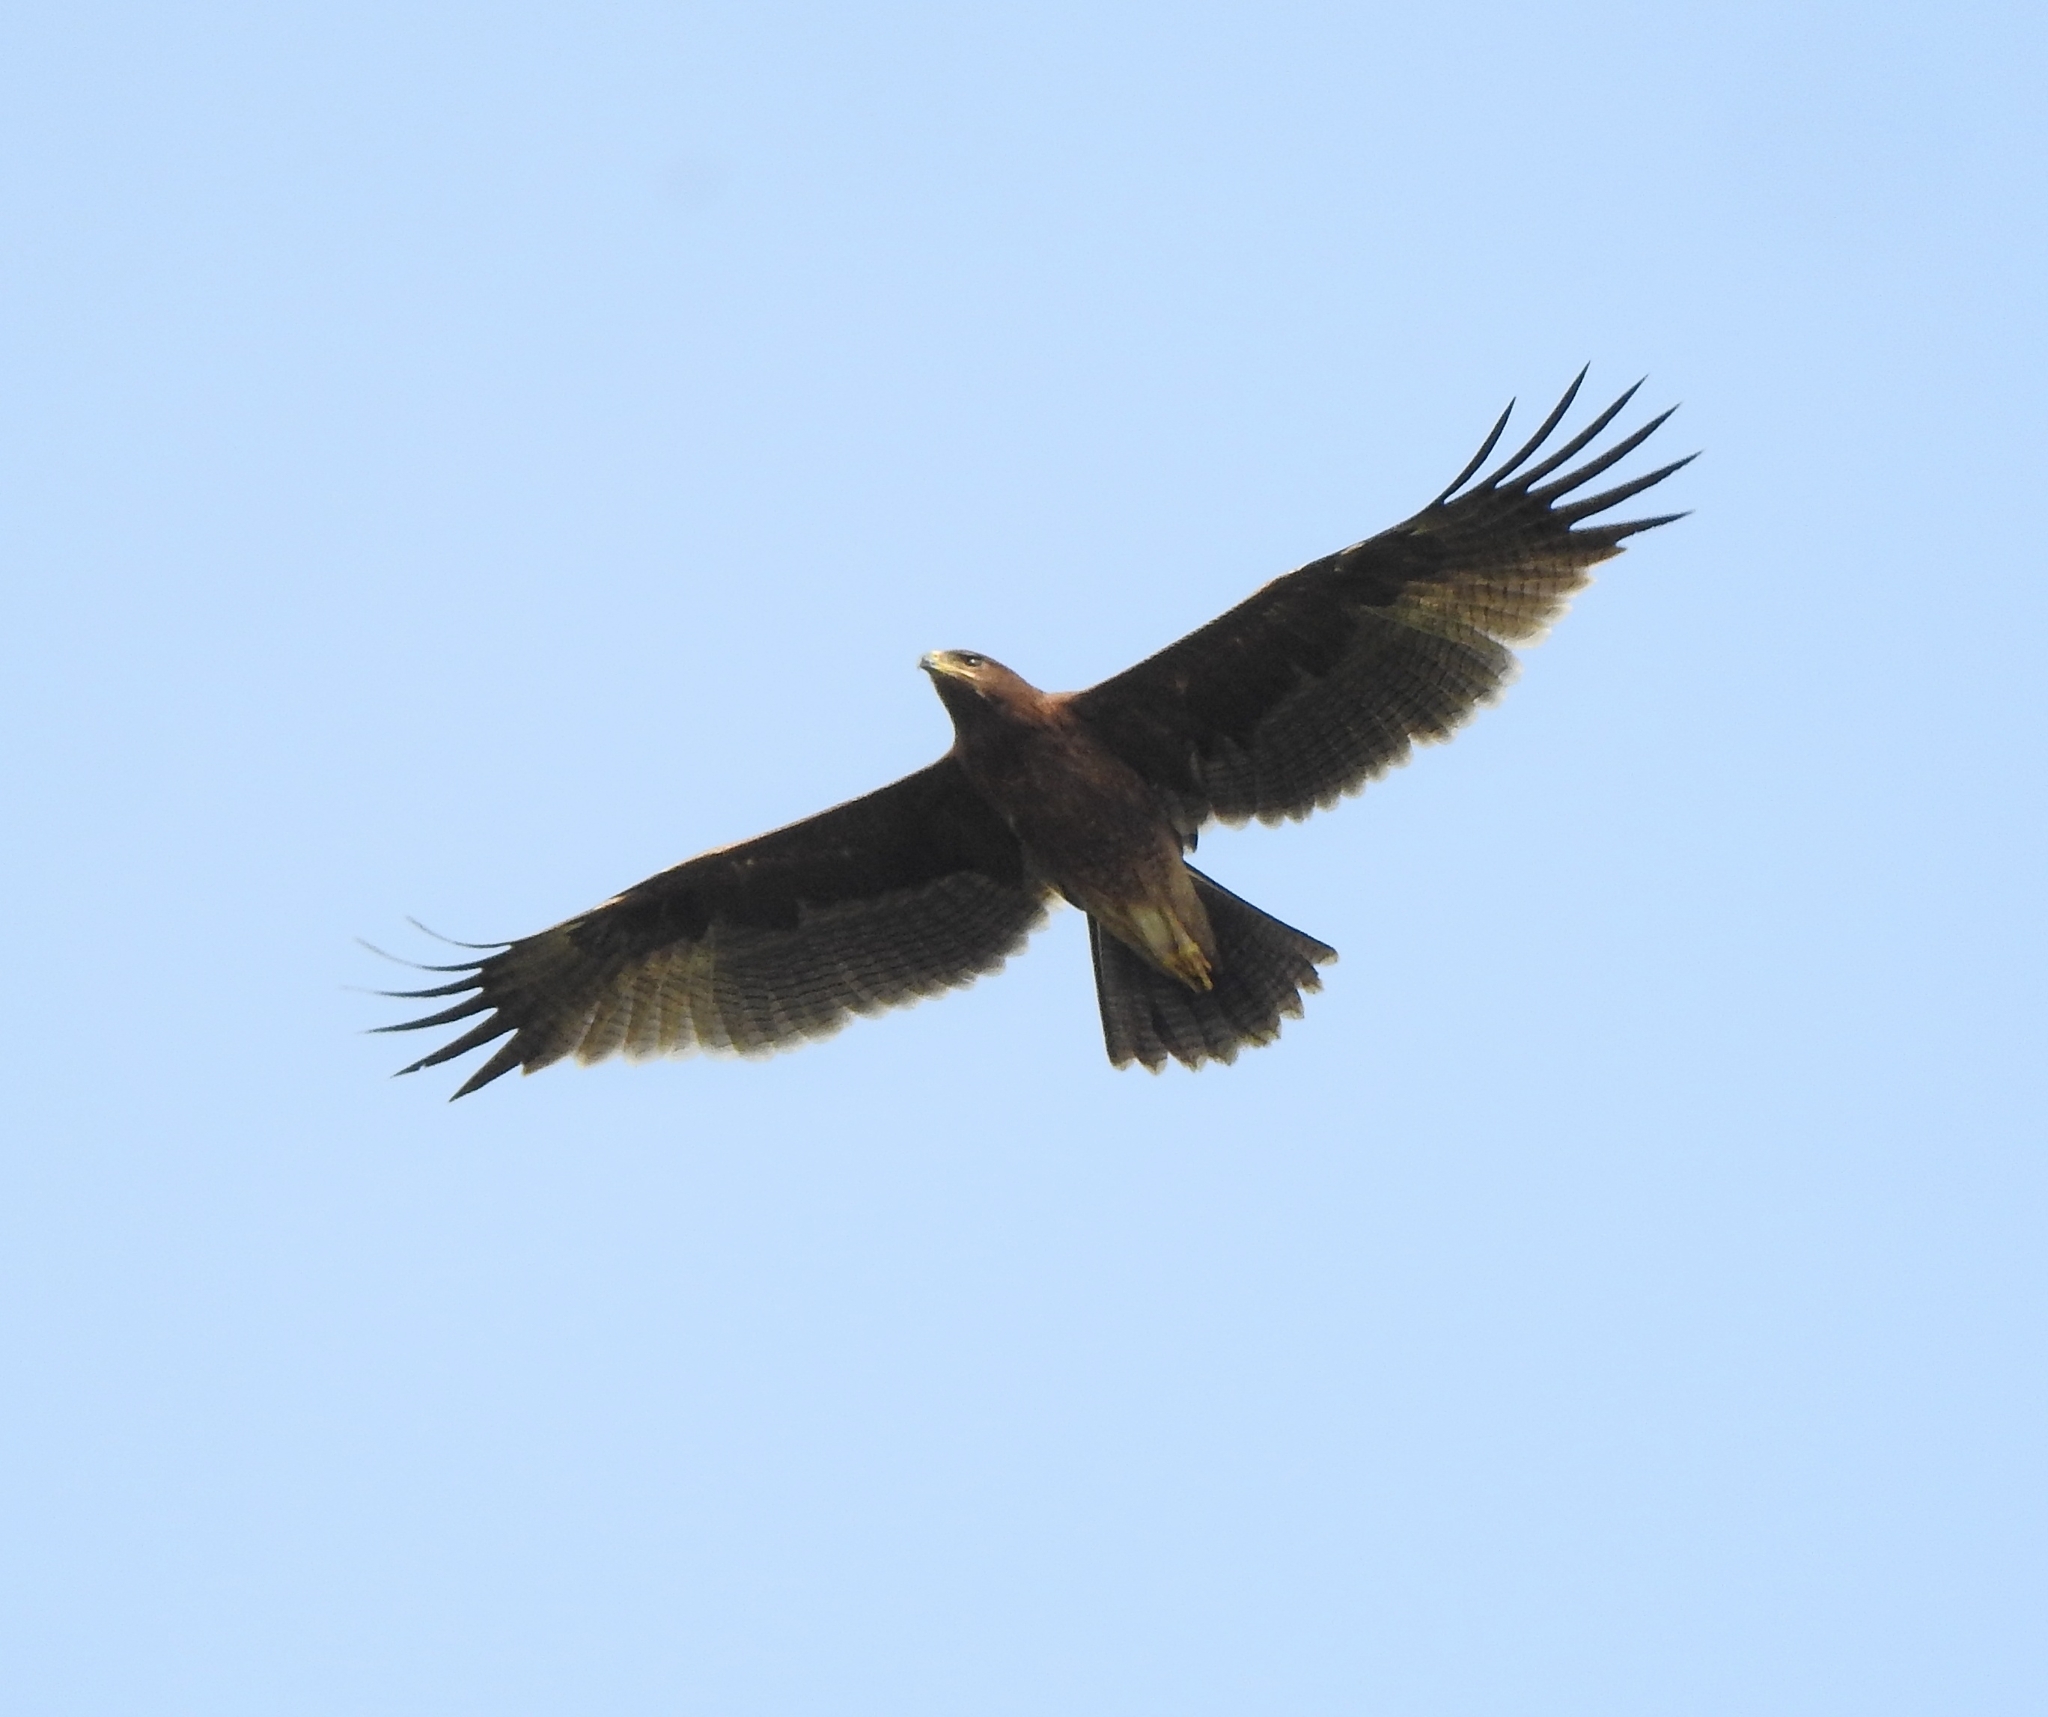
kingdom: Animalia
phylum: Chordata
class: Aves
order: Accipitriformes
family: Accipitridae
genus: Aquila
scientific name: Aquila hastata
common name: Indian spotted eagle
